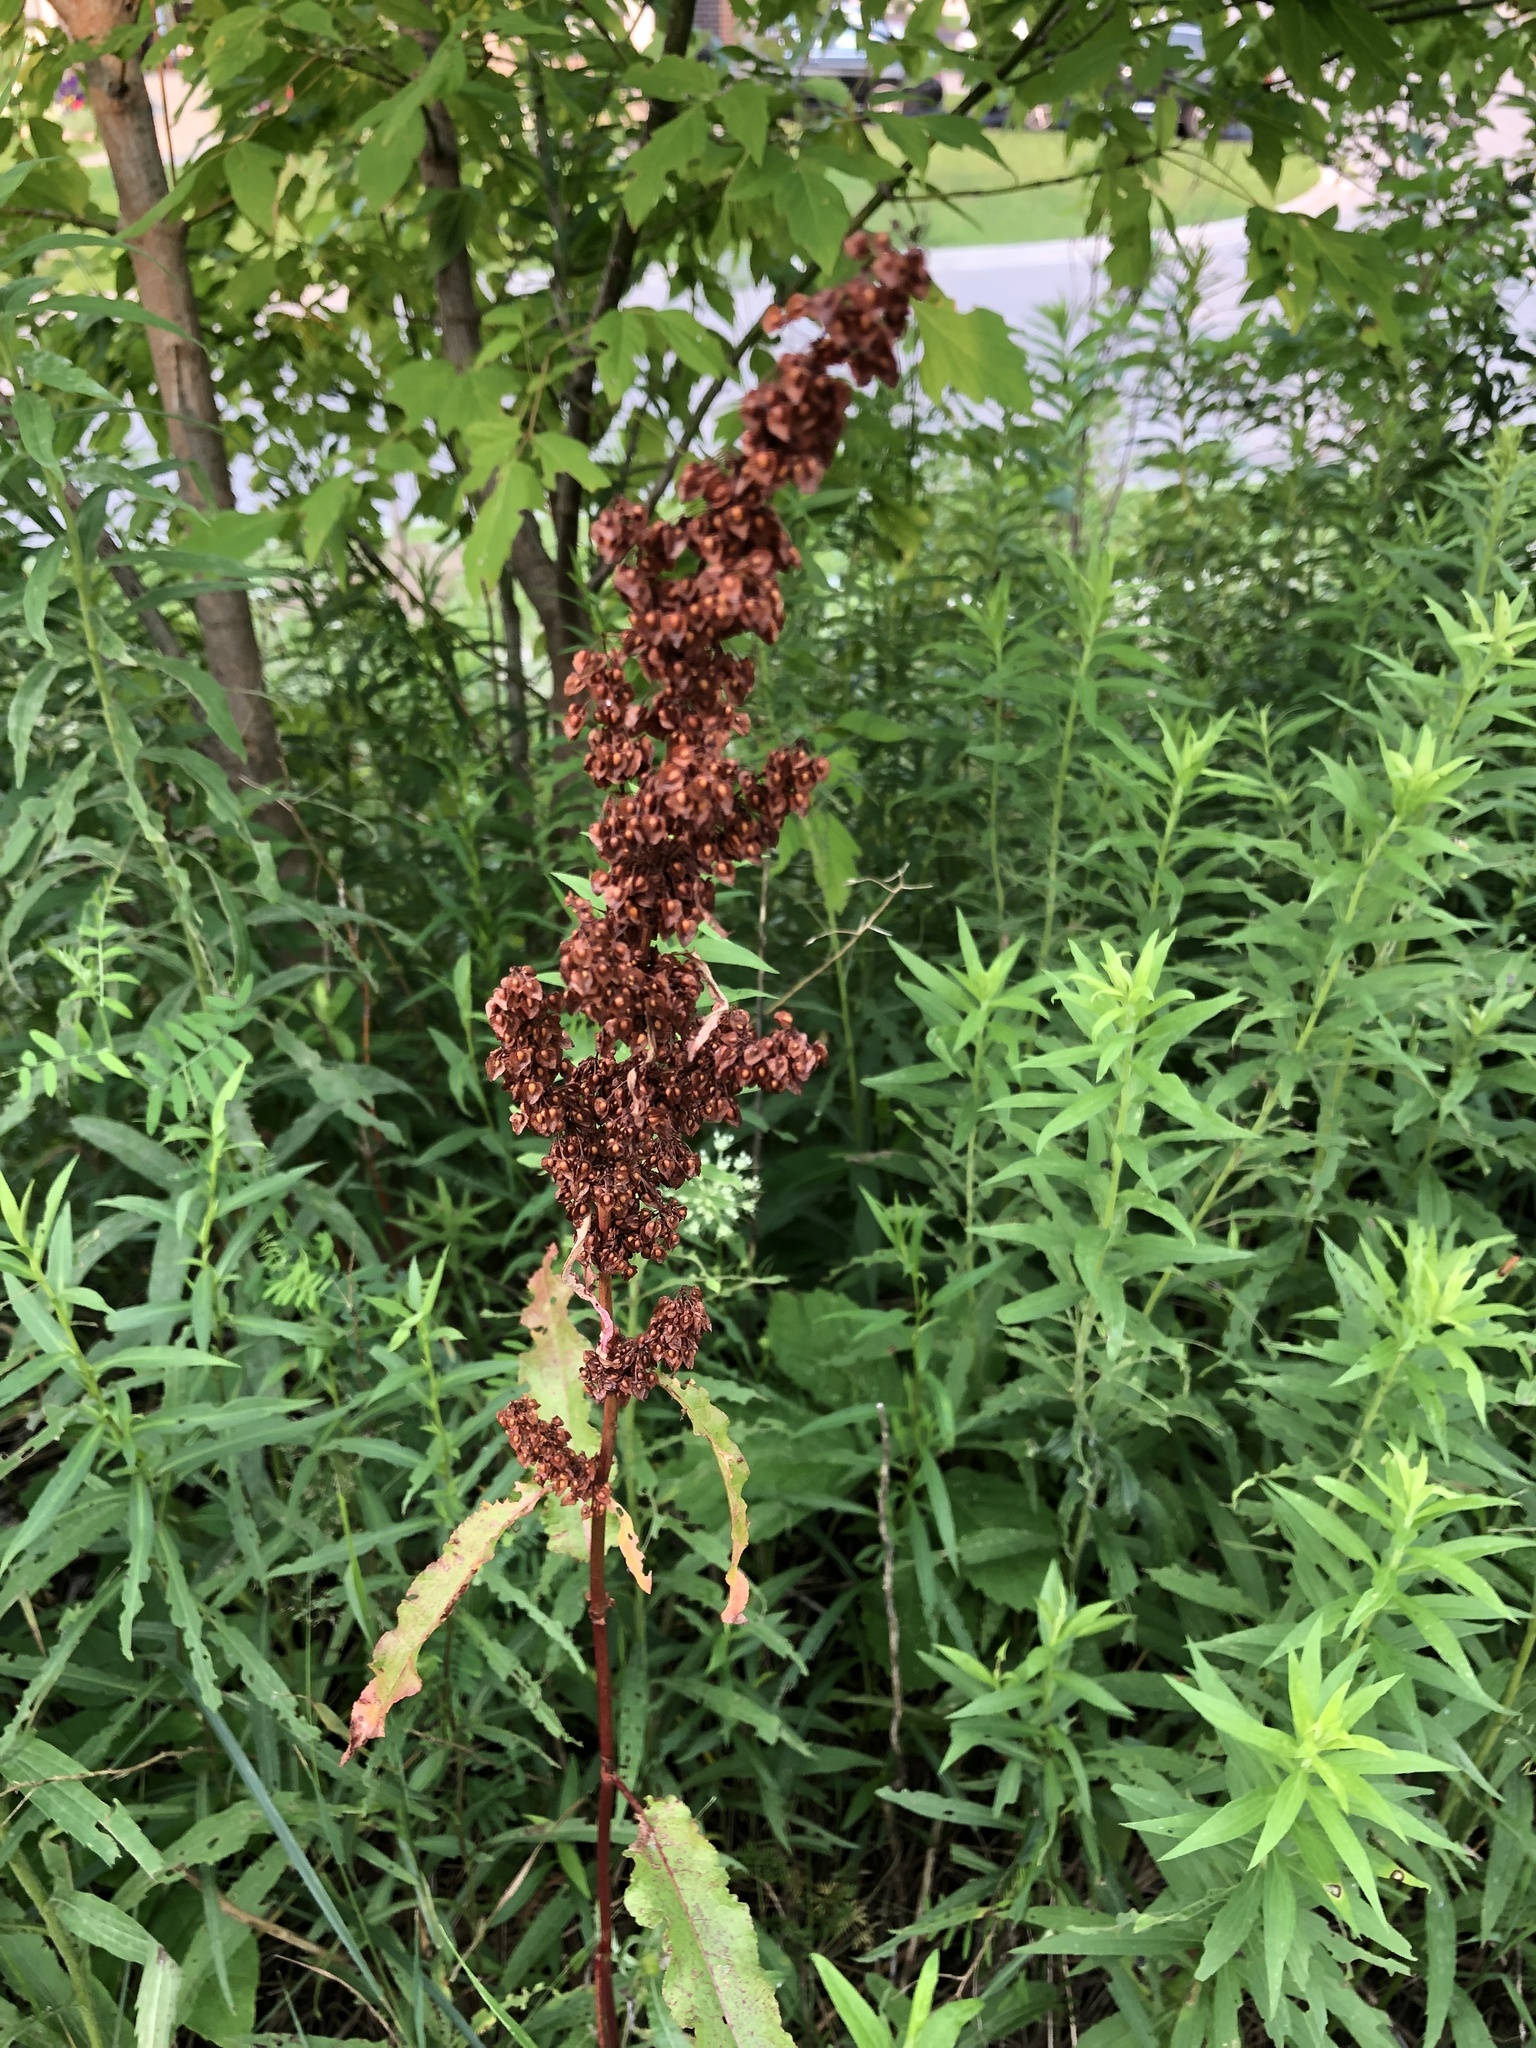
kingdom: Plantae
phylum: Tracheophyta
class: Magnoliopsida
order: Caryophyllales
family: Polygonaceae
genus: Rumex
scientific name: Rumex crispus
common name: Curled dock
